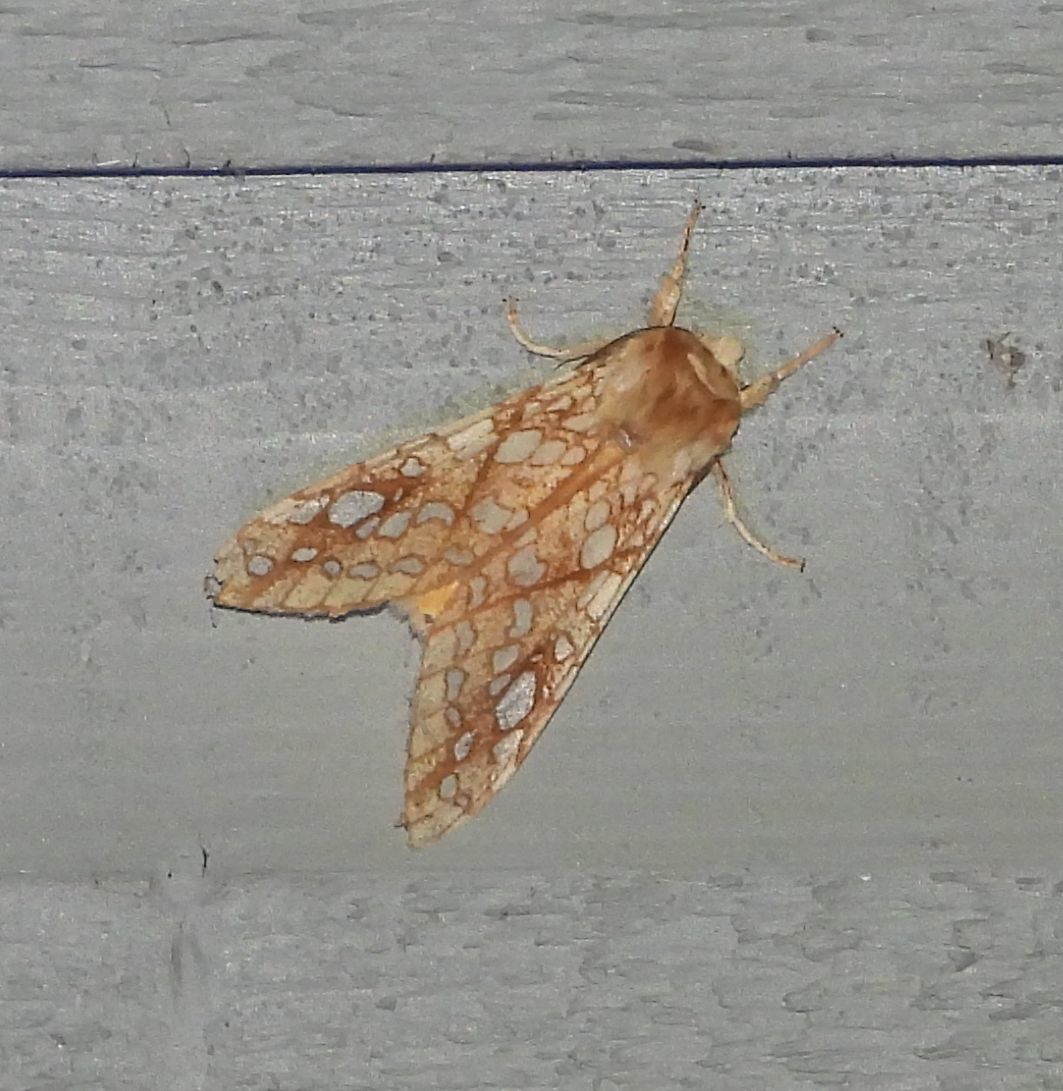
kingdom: Animalia
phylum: Arthropoda
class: Insecta
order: Lepidoptera
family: Erebidae
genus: Lophocampa
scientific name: Lophocampa caryae
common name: Hickory tussock moth
